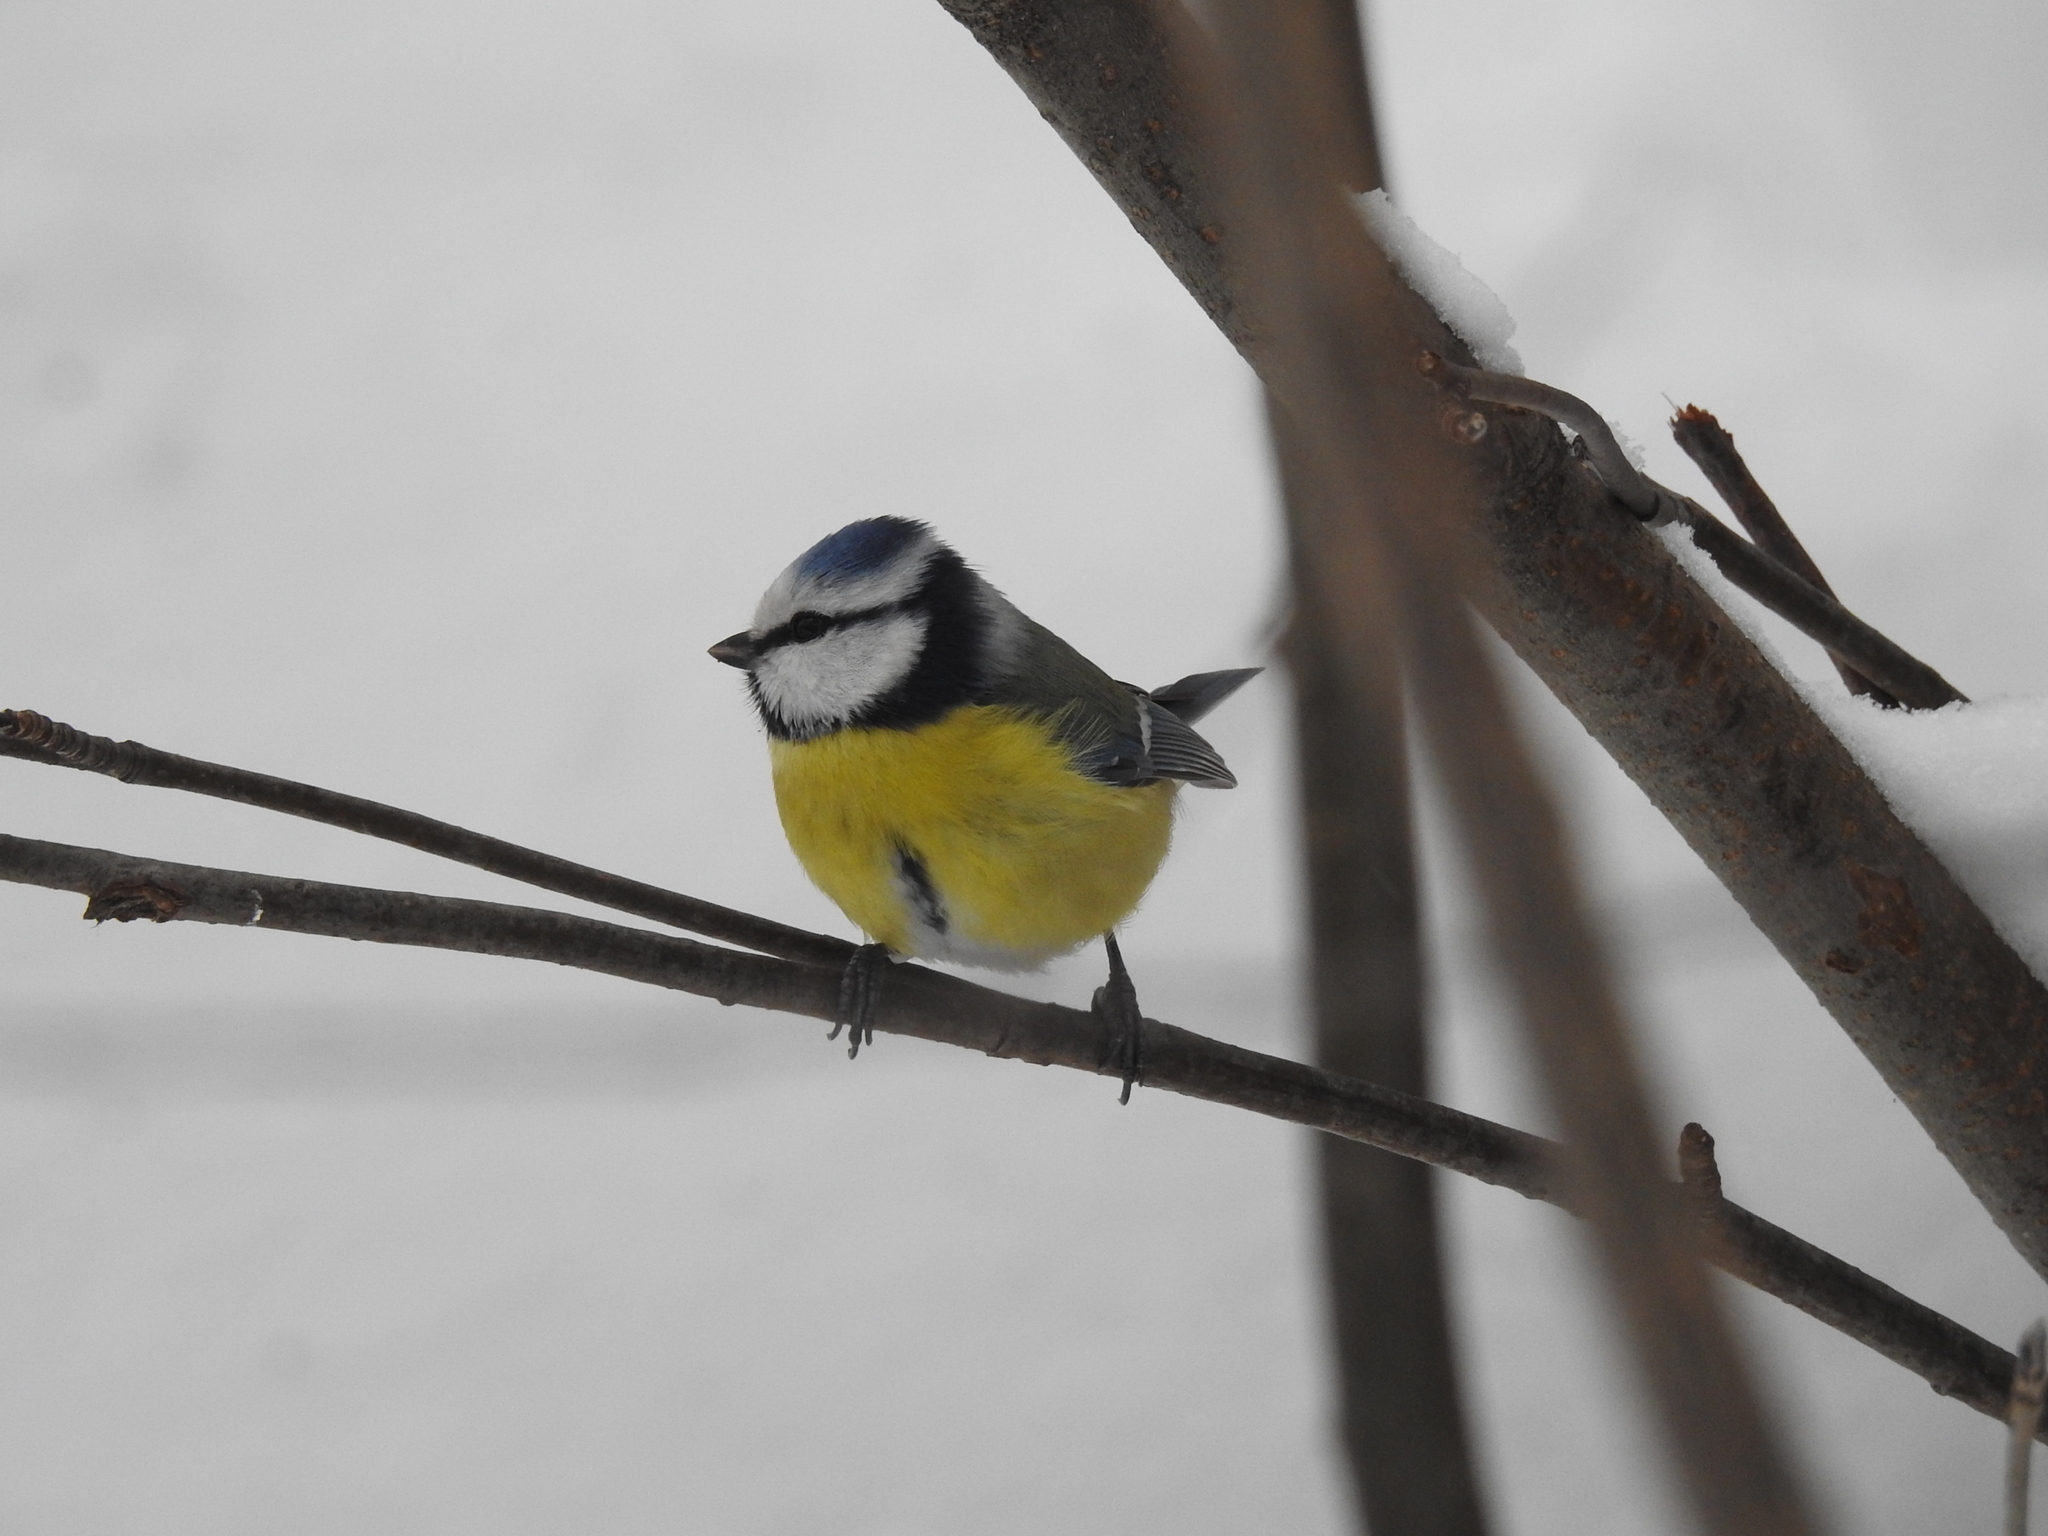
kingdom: Animalia
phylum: Chordata
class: Aves
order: Passeriformes
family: Paridae
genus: Cyanistes
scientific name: Cyanistes caeruleus
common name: Eurasian blue tit
